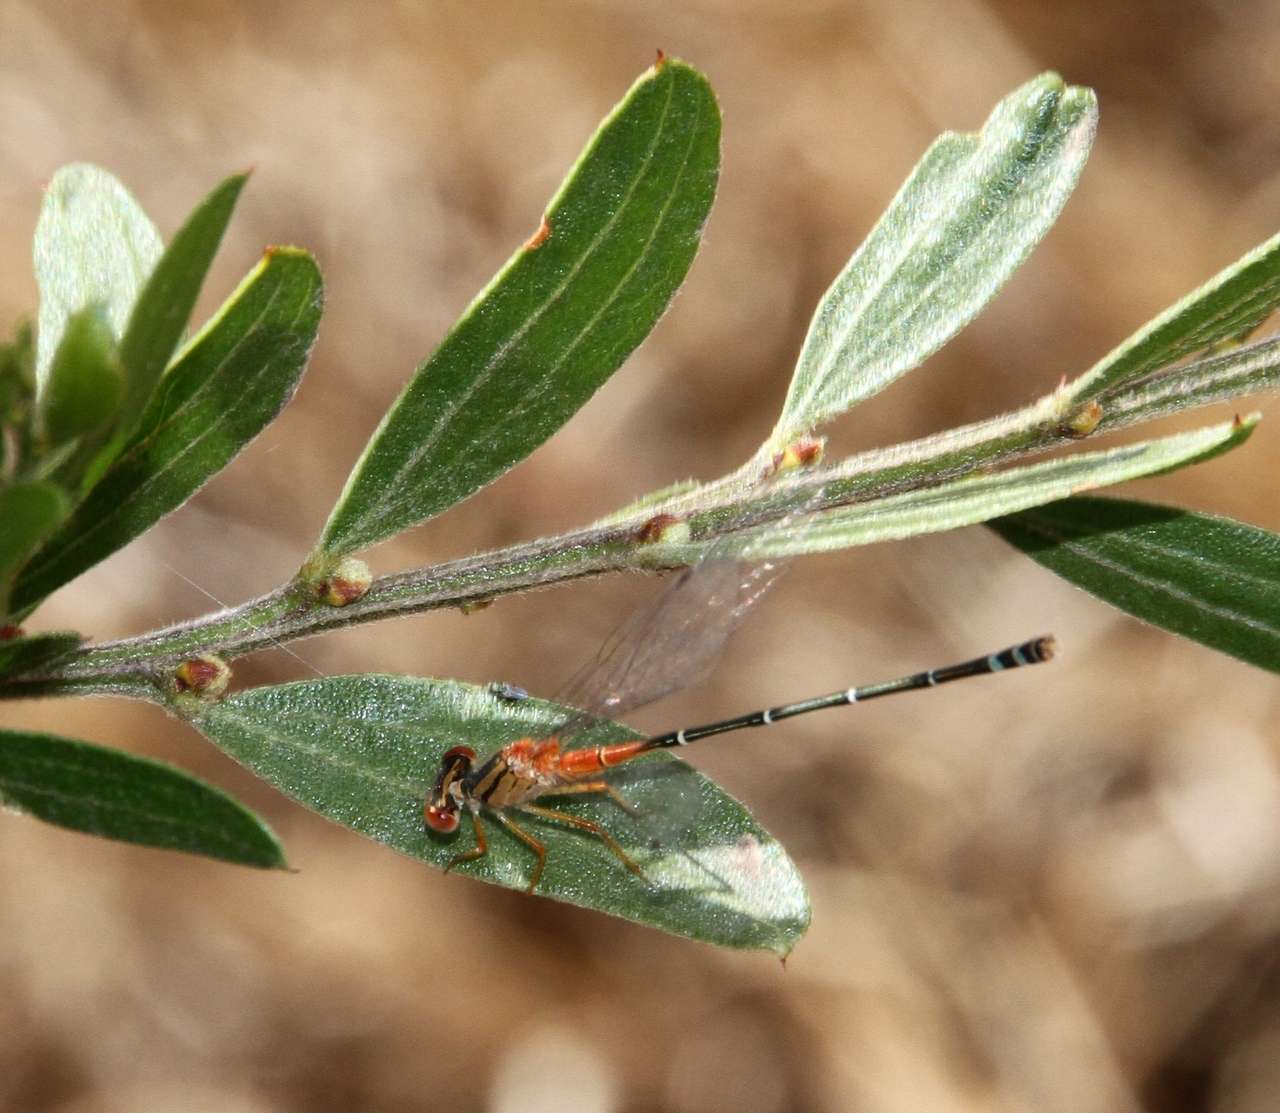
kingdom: Plantae
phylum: Tracheophyta
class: Magnoliopsida
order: Fabales
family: Fabaceae
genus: Acacia
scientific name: Acacia rostriformis
